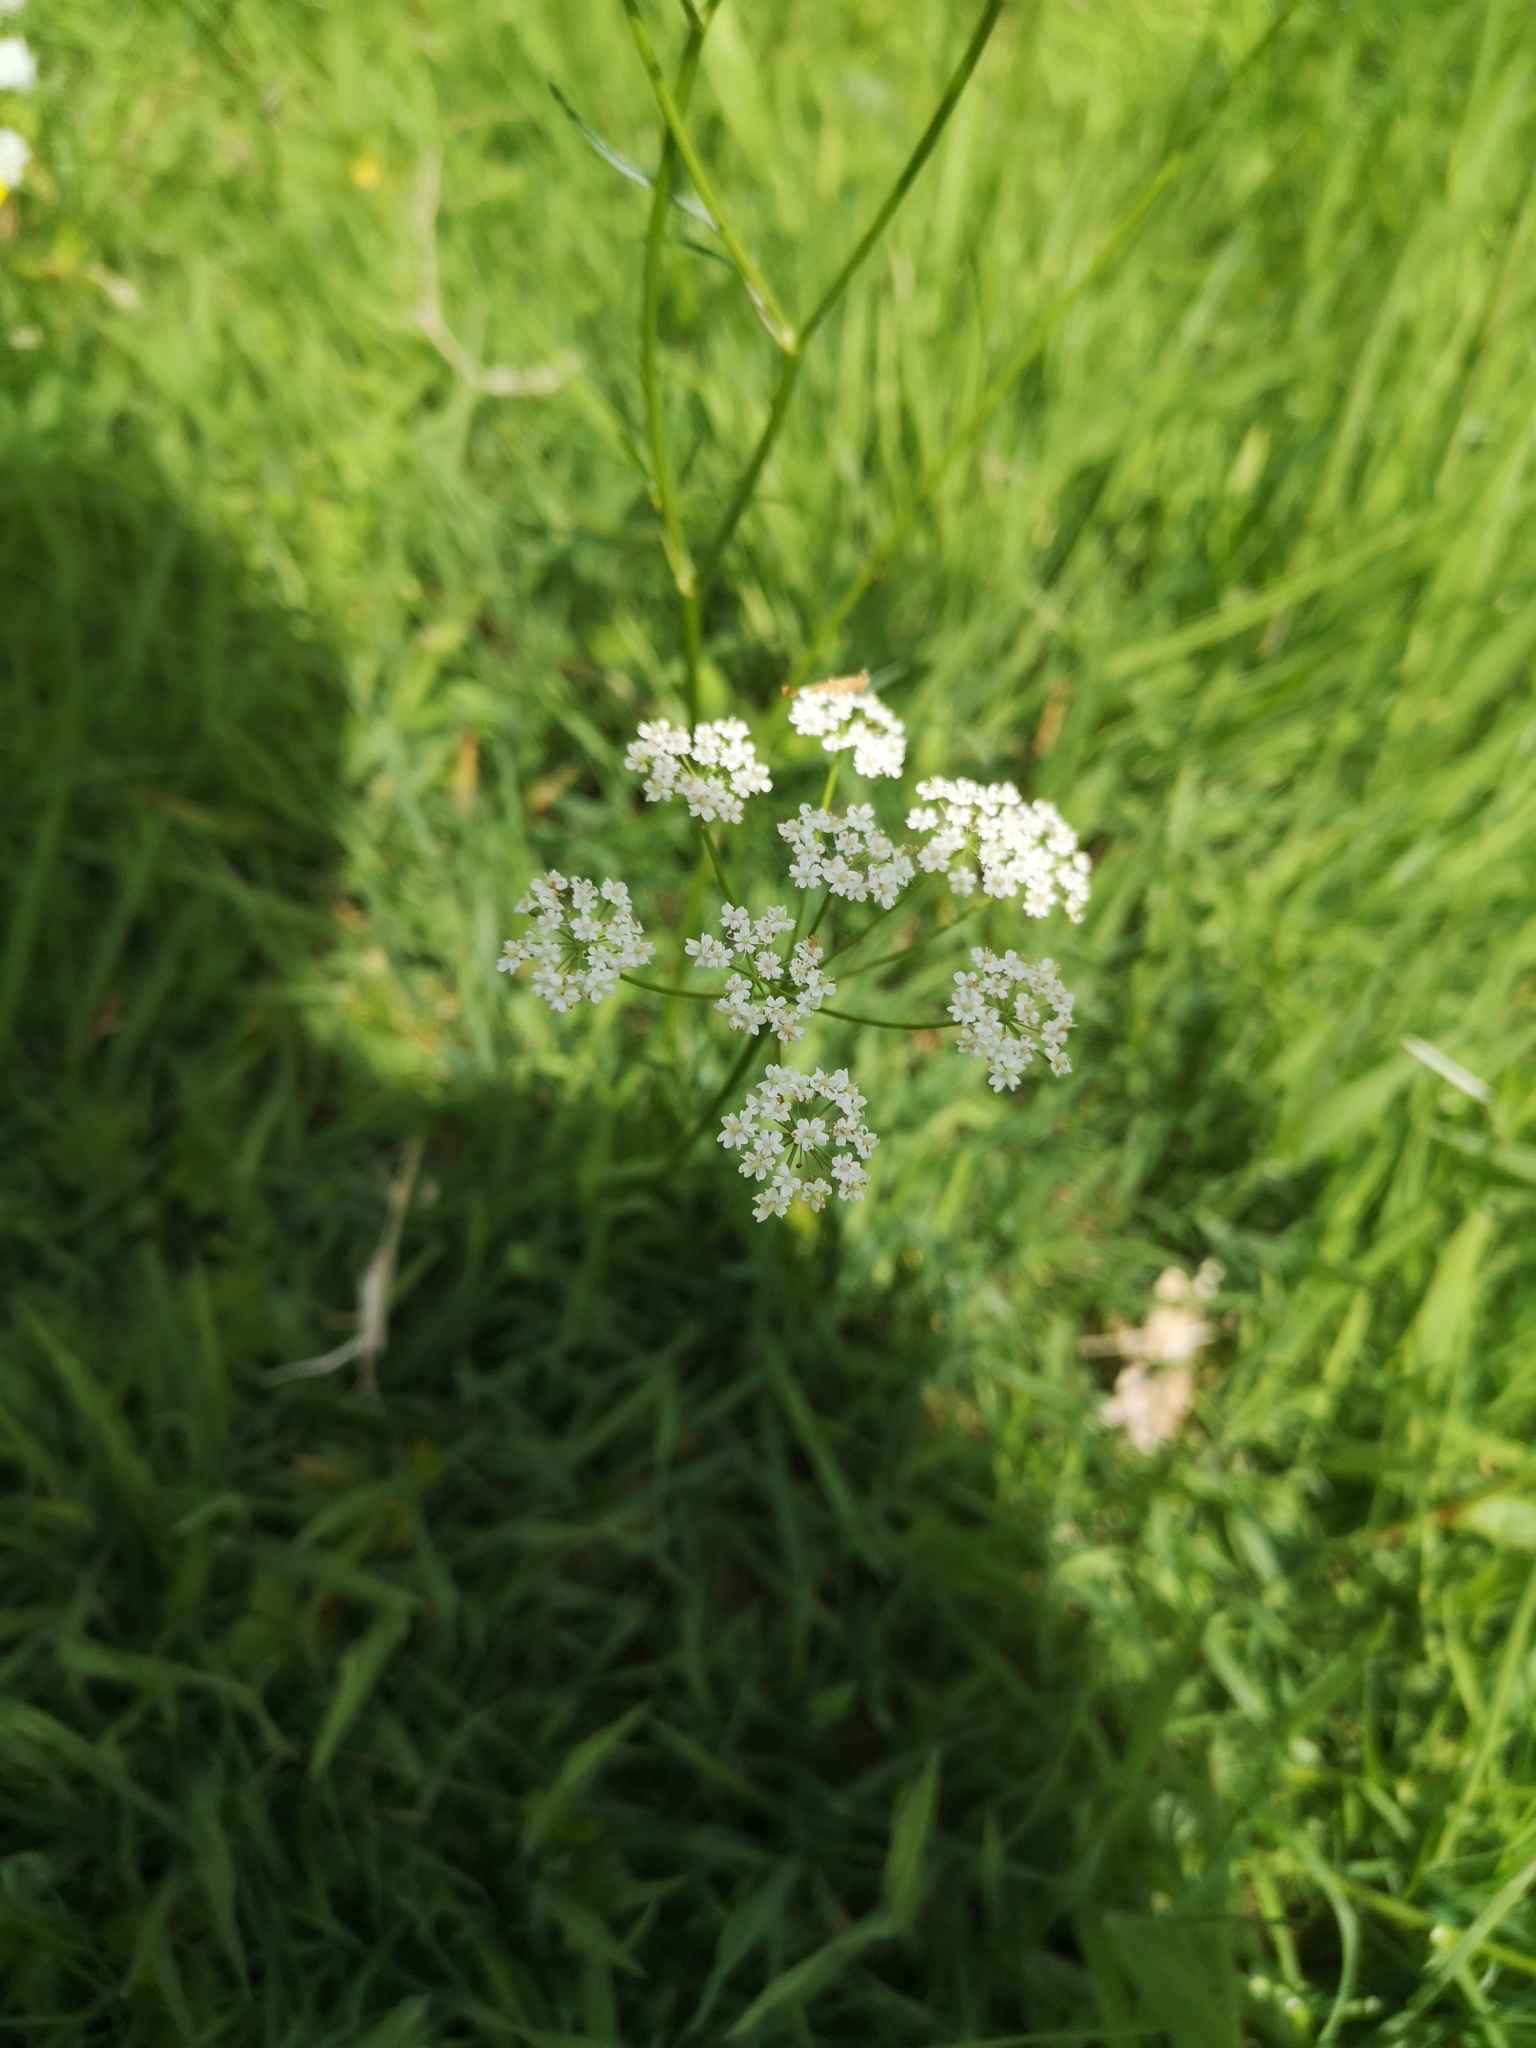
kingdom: Plantae
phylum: Tracheophyta
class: Magnoliopsida
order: Apiales
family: Apiaceae
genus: Conopodium
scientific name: Conopodium majus
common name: Pignut
